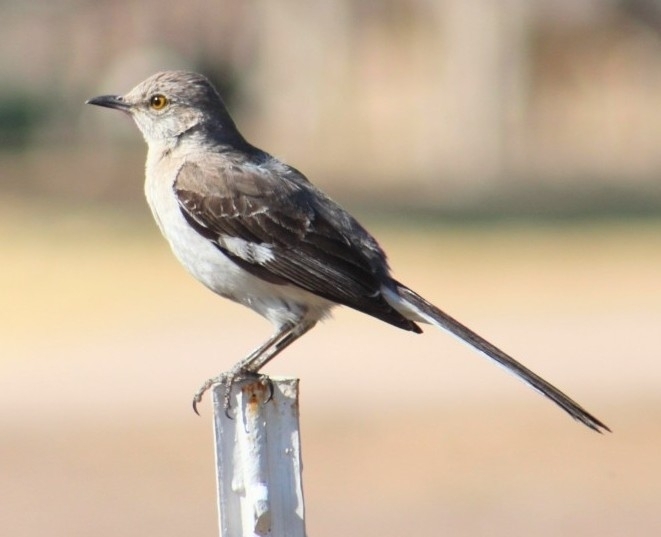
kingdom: Animalia
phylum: Chordata
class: Aves
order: Passeriformes
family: Mimidae
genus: Mimus
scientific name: Mimus polyglottos
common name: Northern mockingbird
